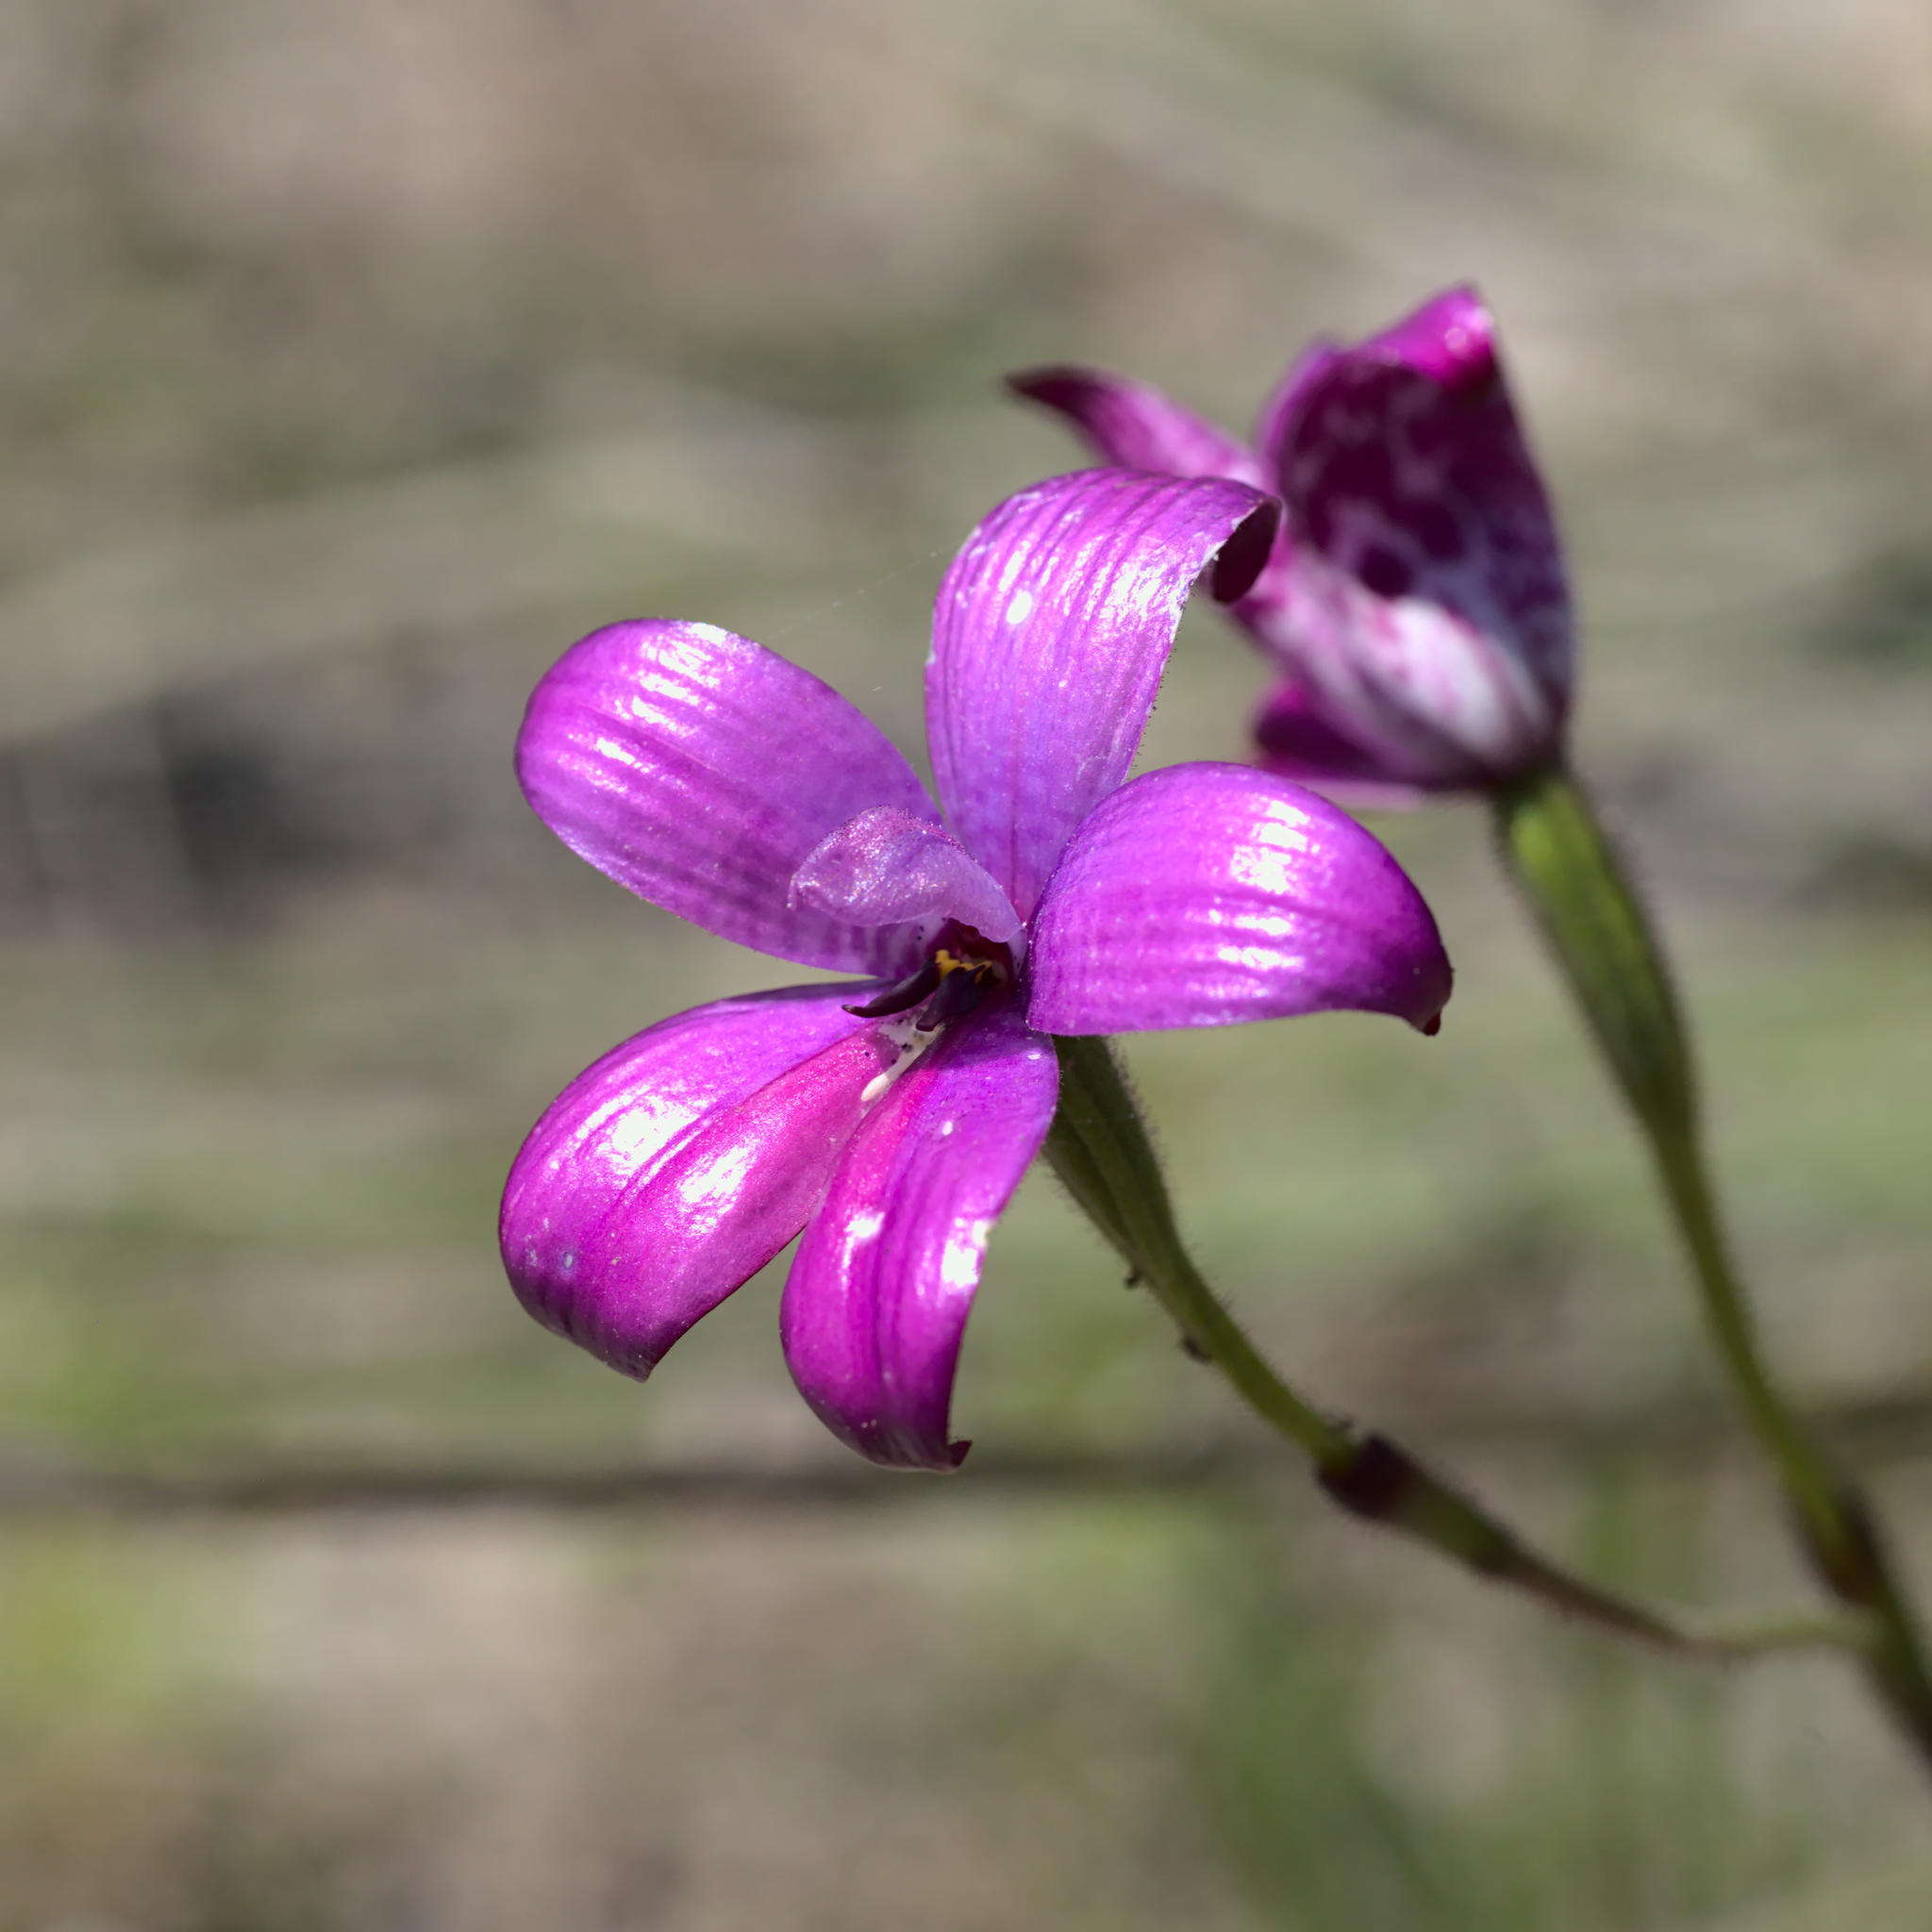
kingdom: Plantae
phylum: Tracheophyta
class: Liliopsida
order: Asparagales
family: Orchidaceae
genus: Caladenia
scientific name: Caladenia brunonis
